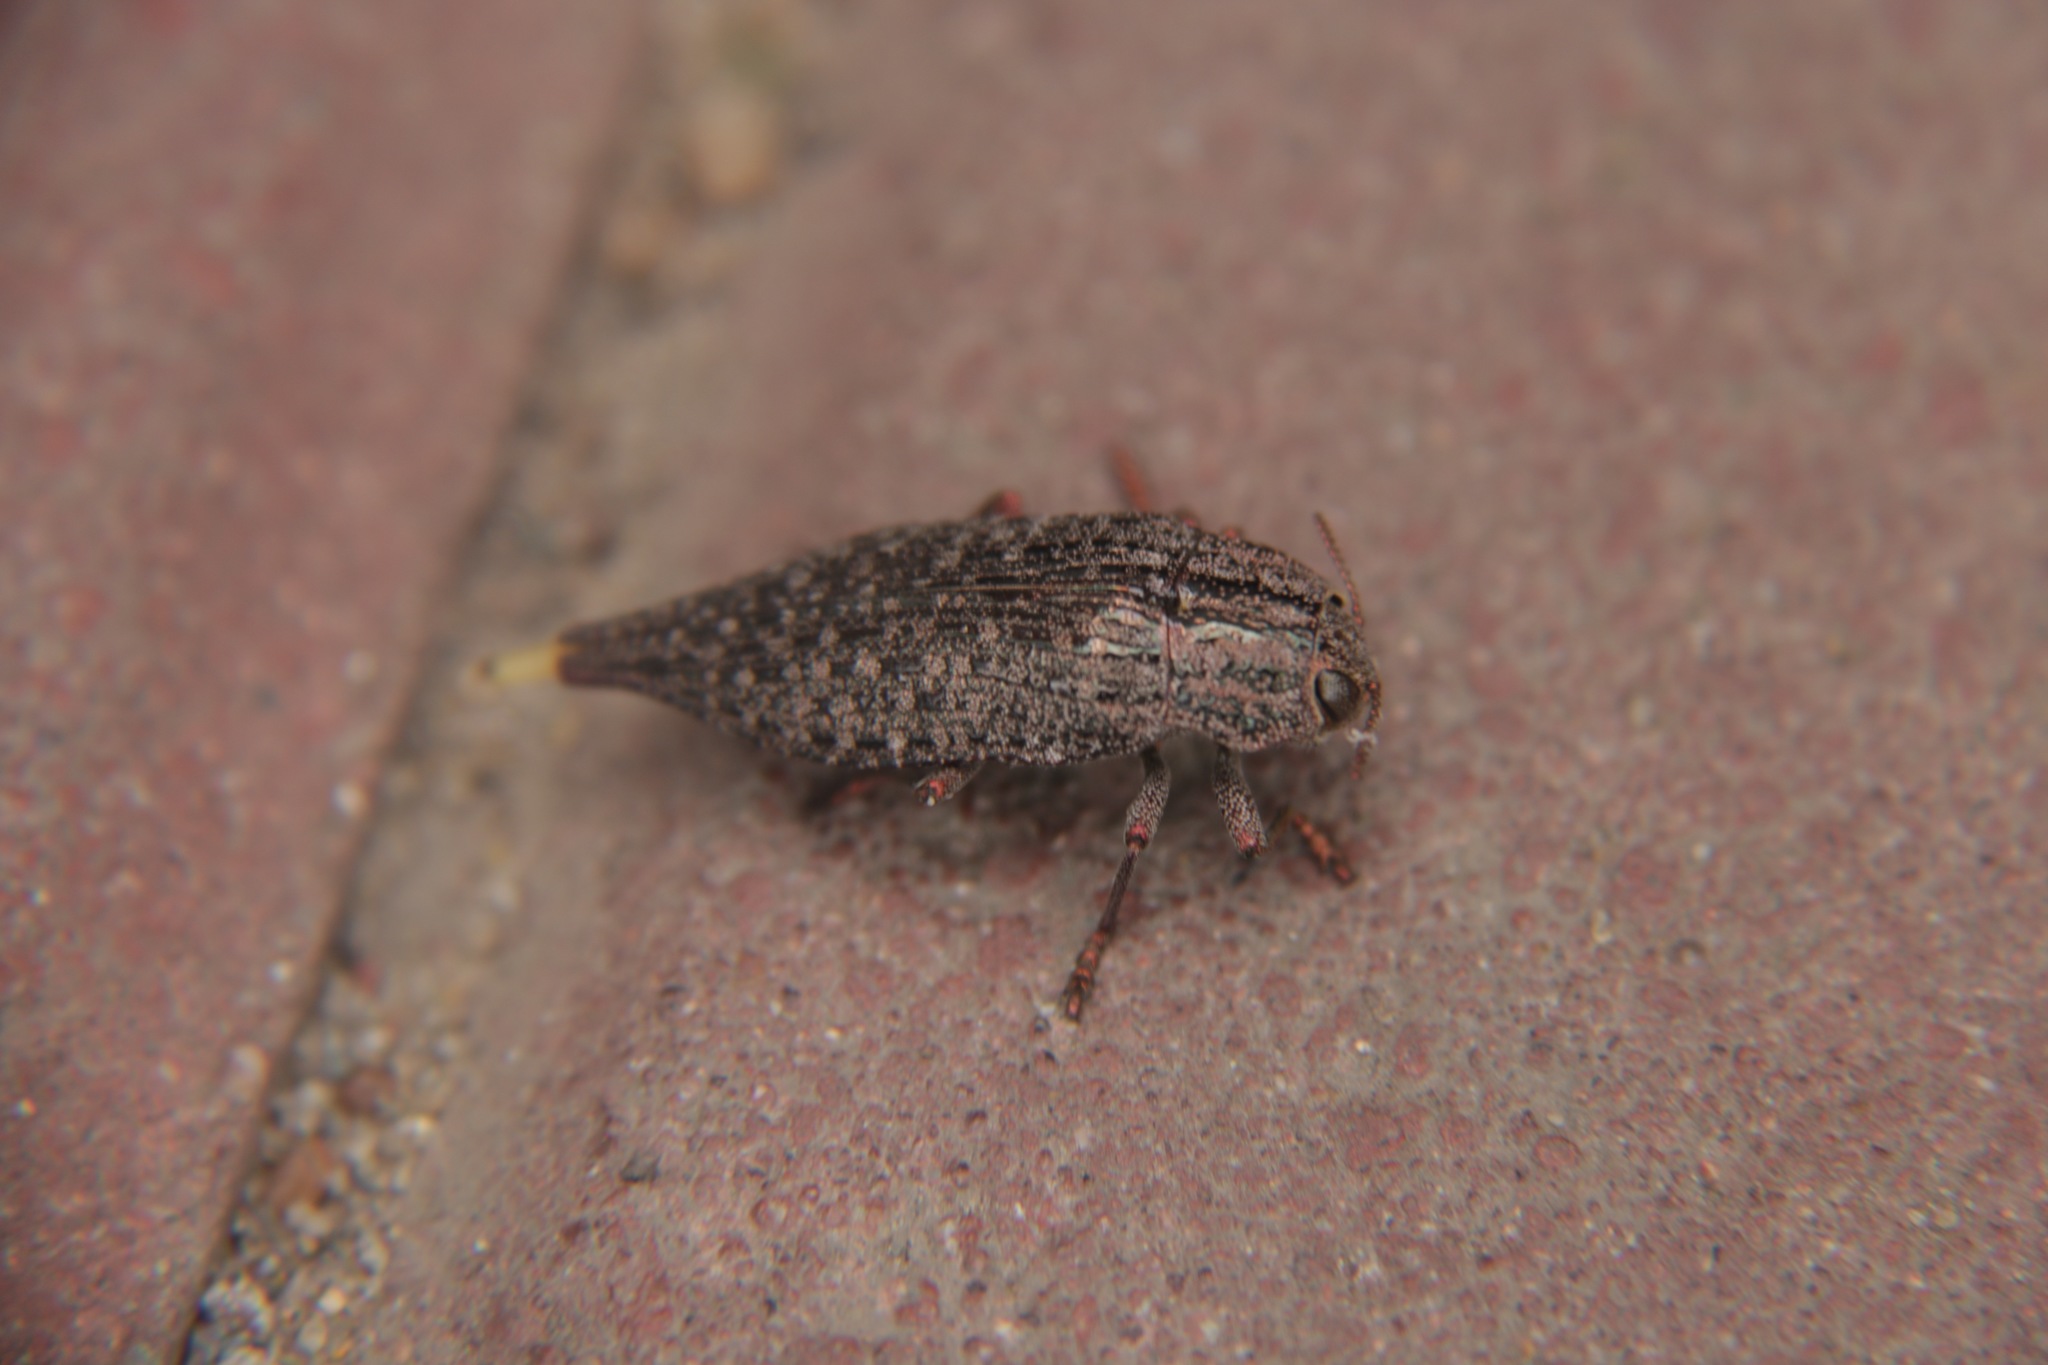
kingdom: Animalia
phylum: Arthropoda
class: Insecta
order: Coleoptera
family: Buprestidae
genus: Dicerca
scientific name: Dicerca furcata
